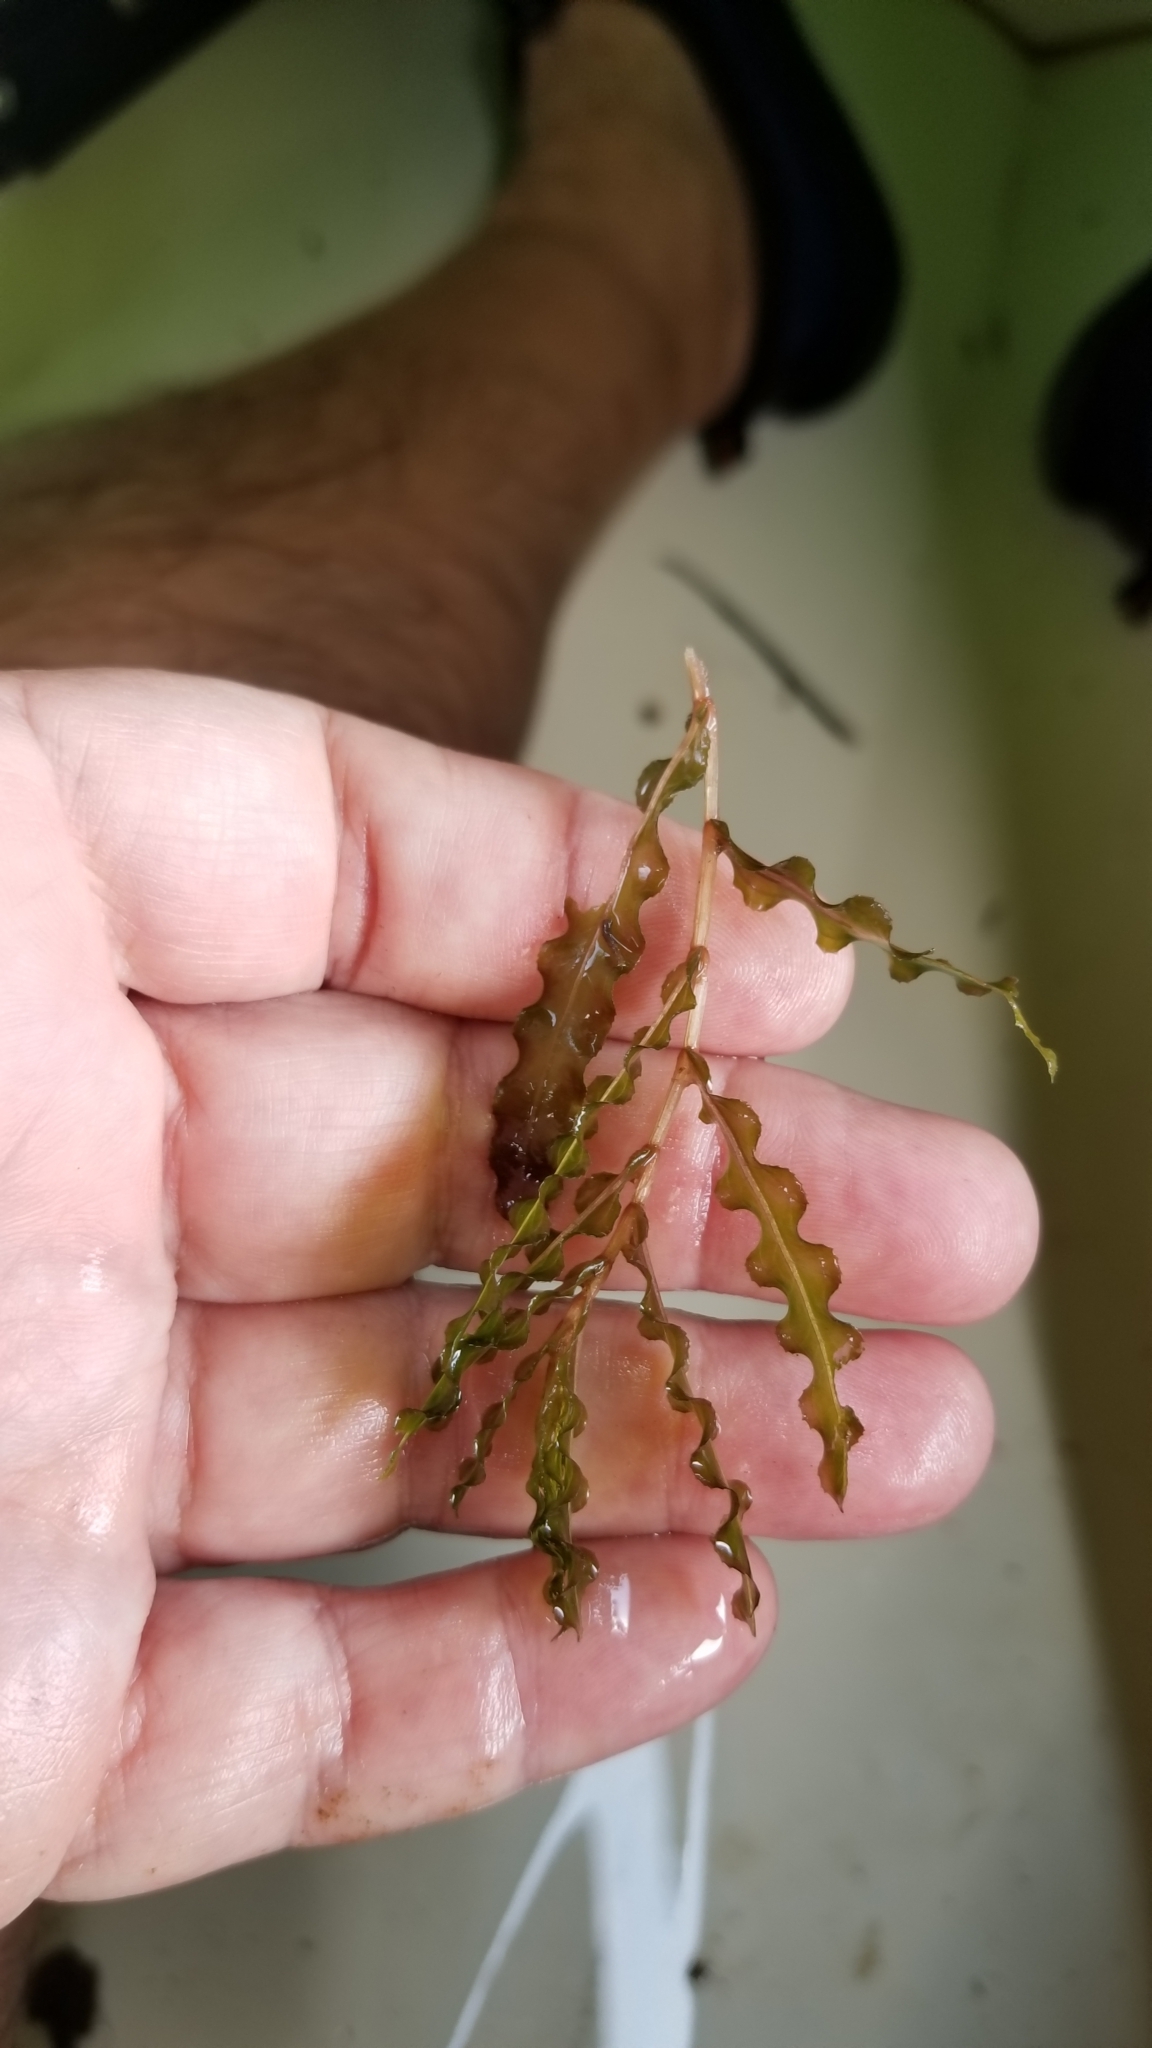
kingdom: Plantae
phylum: Tracheophyta
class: Liliopsida
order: Alismatales
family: Potamogetonaceae
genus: Potamogeton
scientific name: Potamogeton crispus
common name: Curled pondweed
